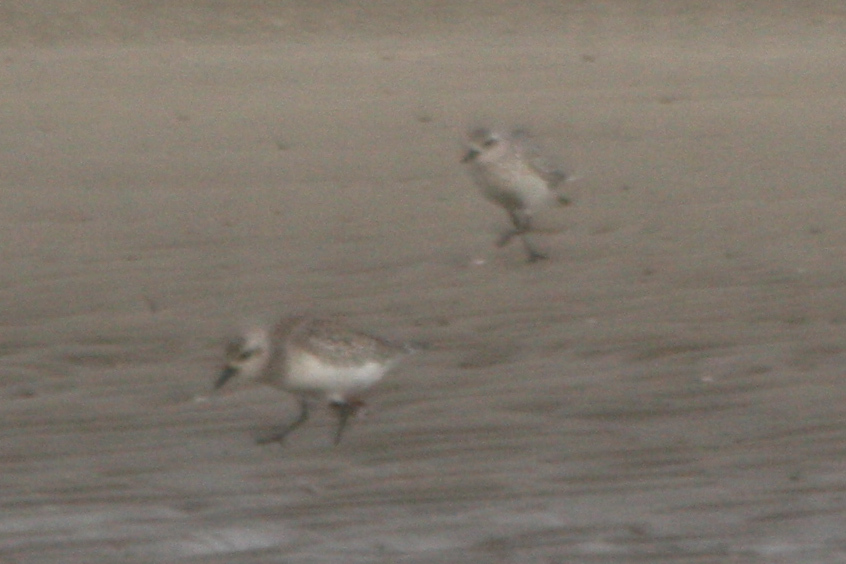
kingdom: Animalia
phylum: Chordata
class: Aves
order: Charadriiformes
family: Charadriidae
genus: Pluvialis
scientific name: Pluvialis squatarola
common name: Grey plover
